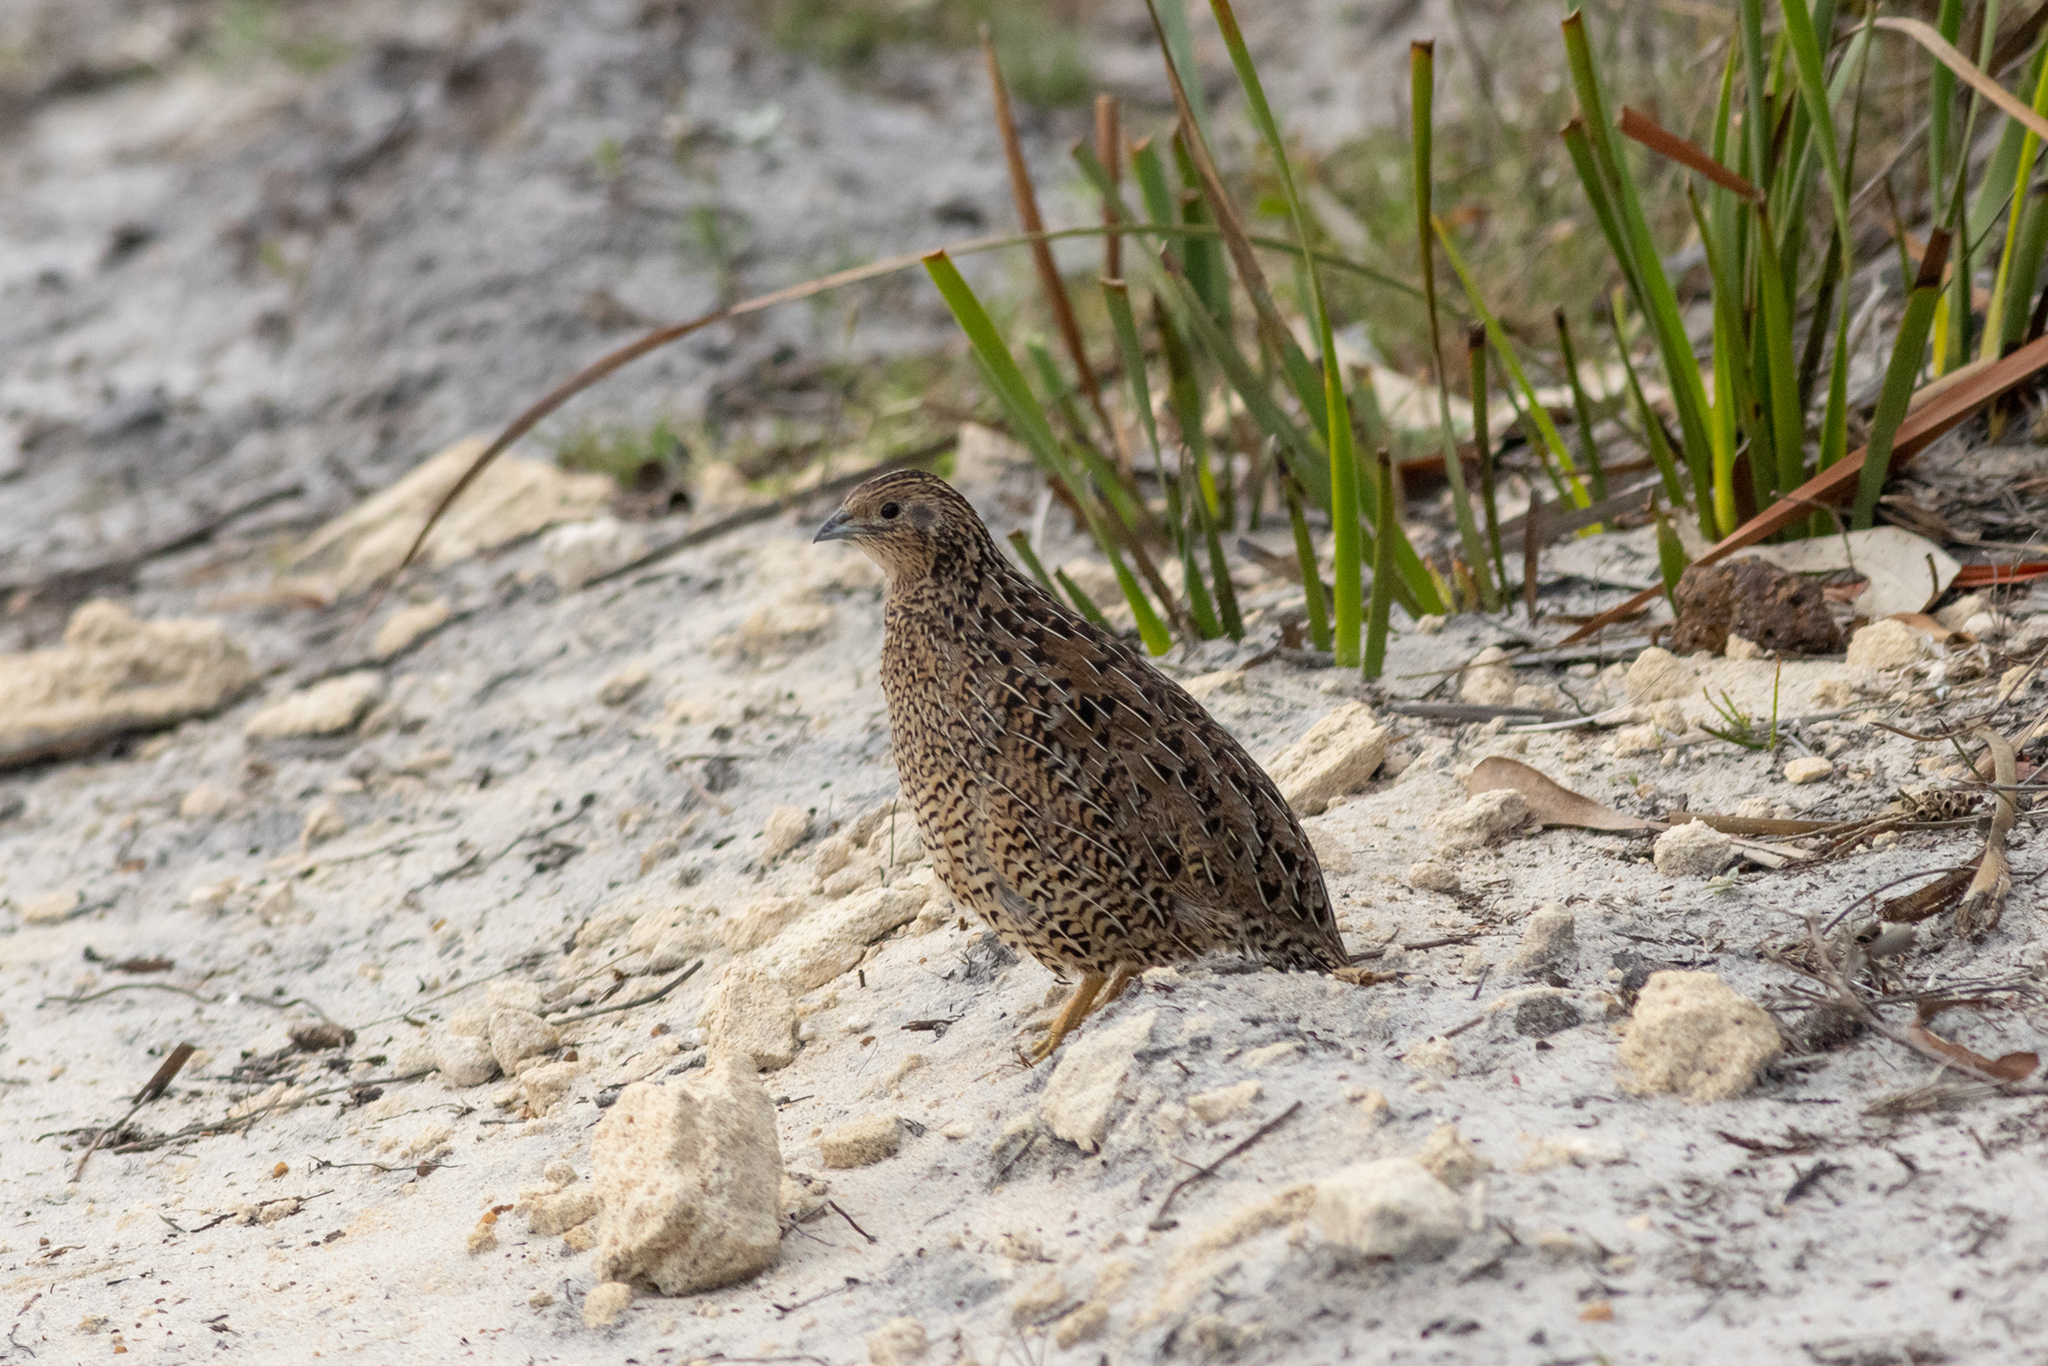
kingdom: Animalia
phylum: Chordata
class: Aves
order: Galliformes
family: Phasianidae
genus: Synoicus
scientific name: Synoicus ypsilophorus
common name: Brown quail
